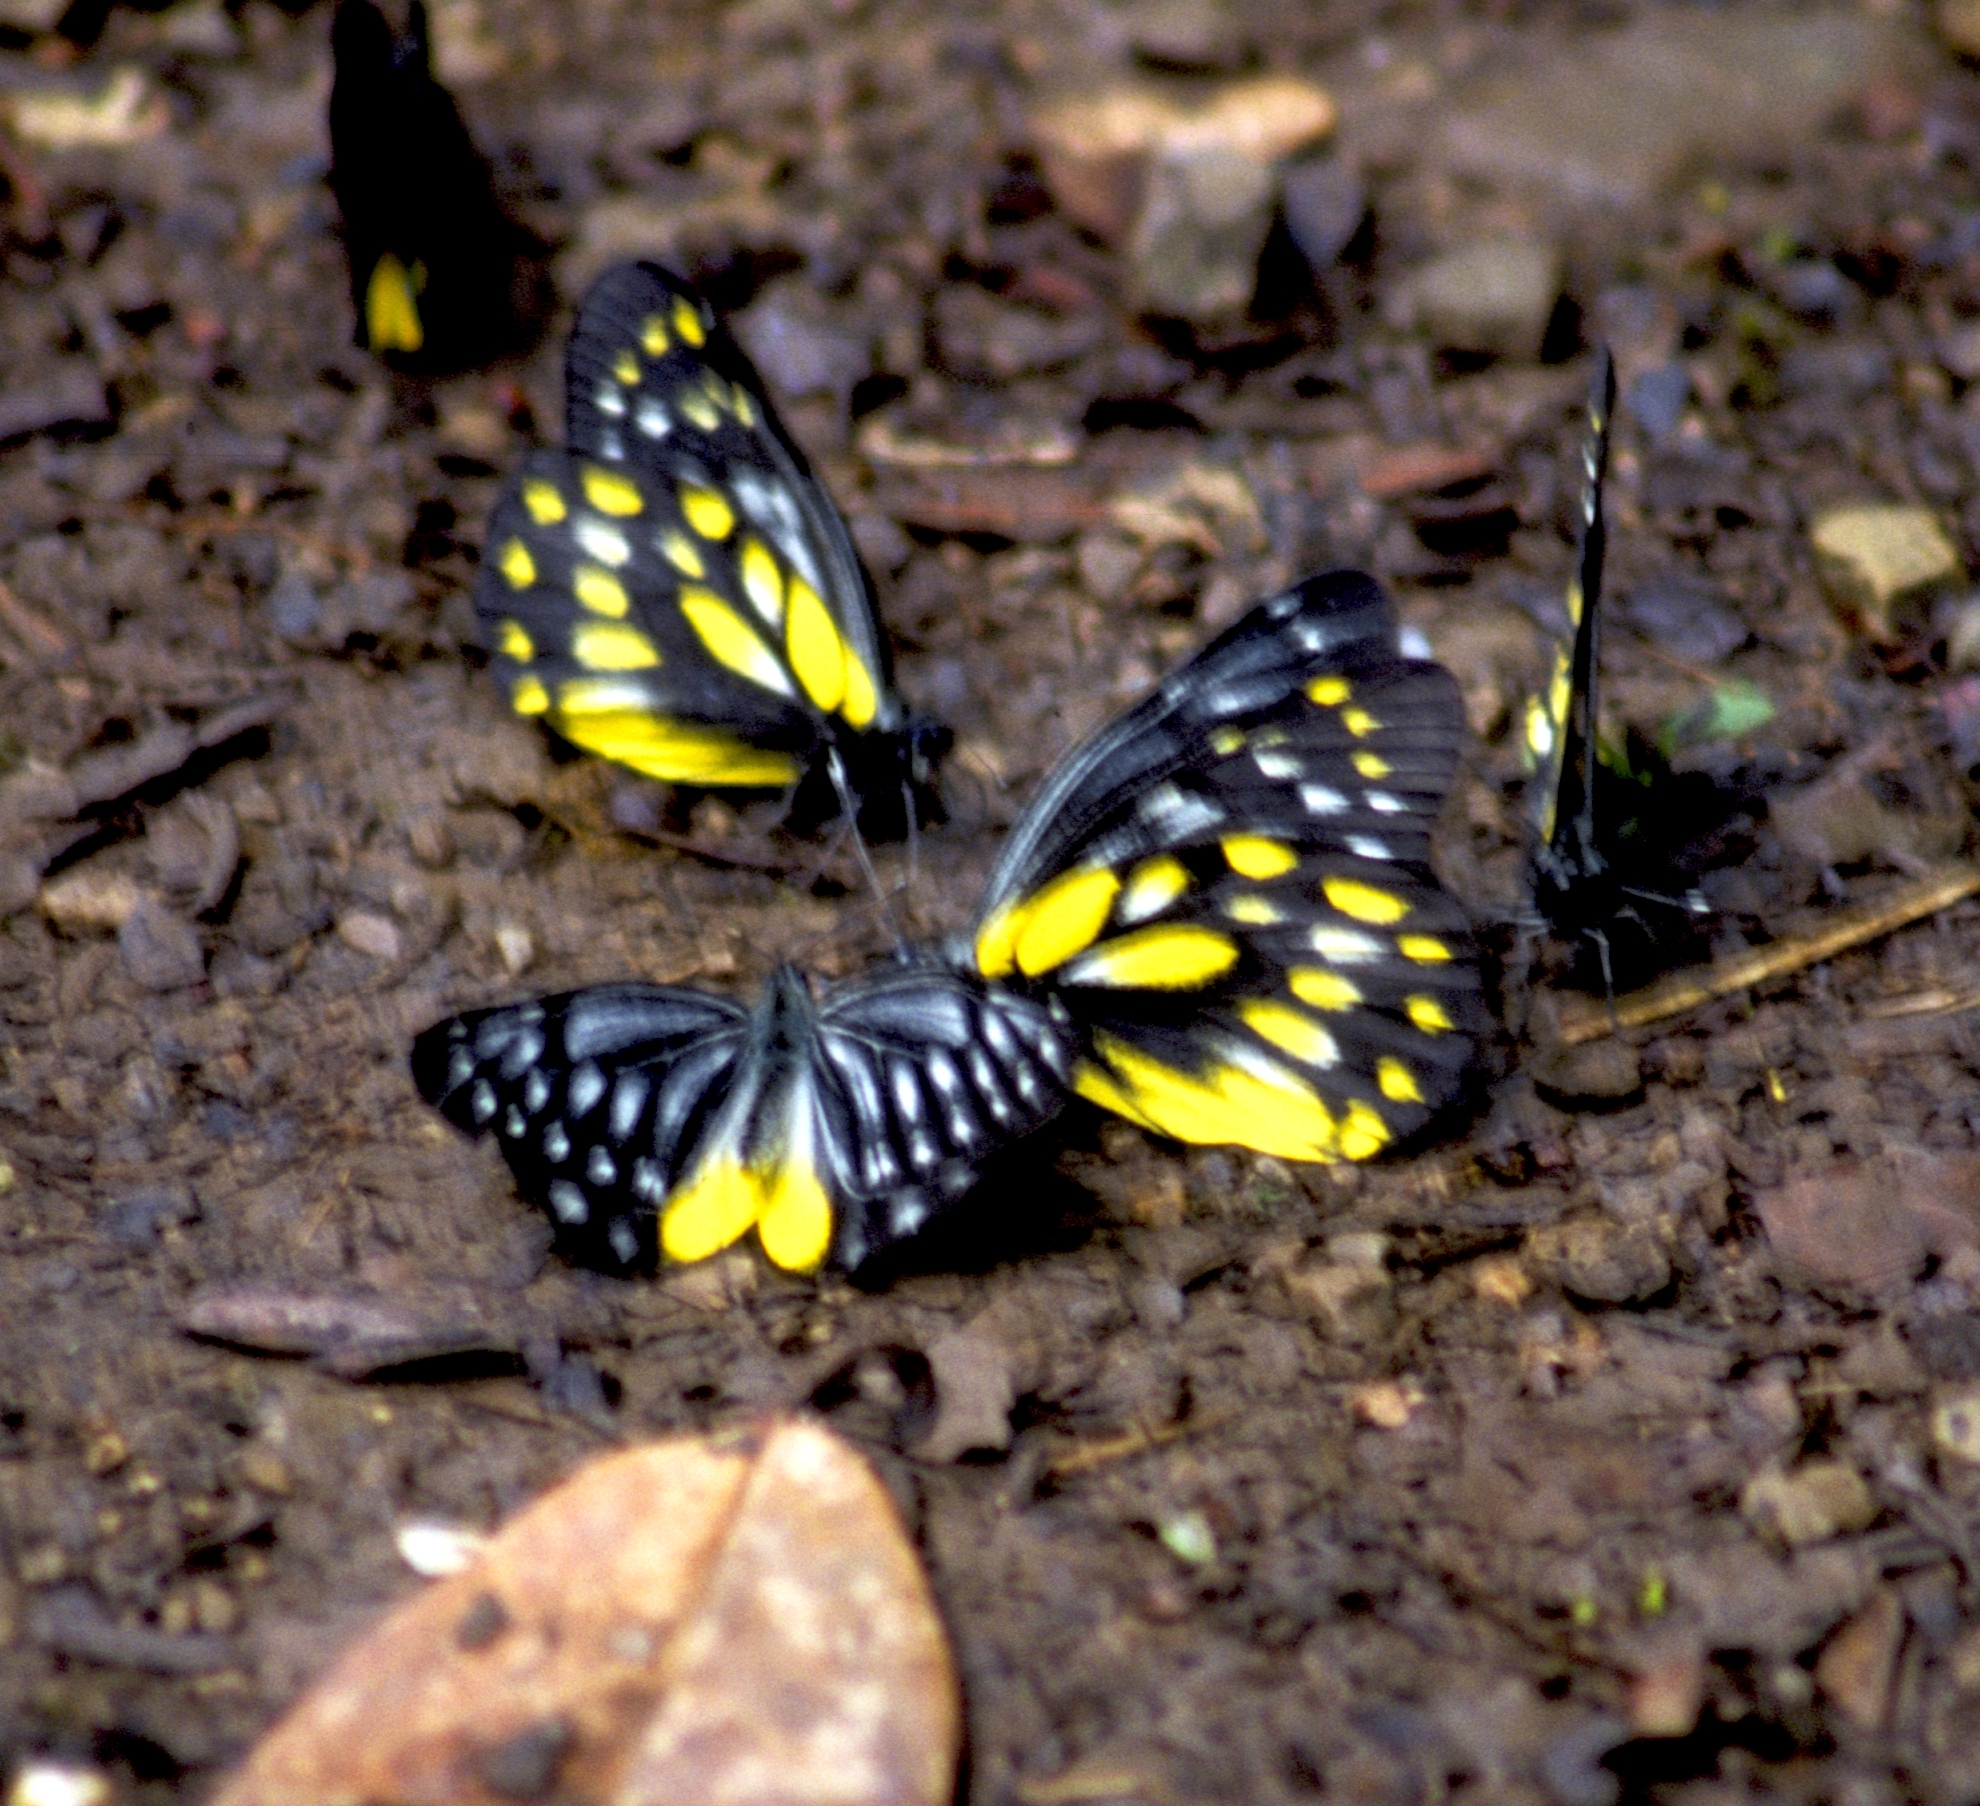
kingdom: Animalia
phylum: Arthropoda
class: Insecta
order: Lepidoptera
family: Pieridae
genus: Delias
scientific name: Delias sanaca
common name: Pale jezebel
